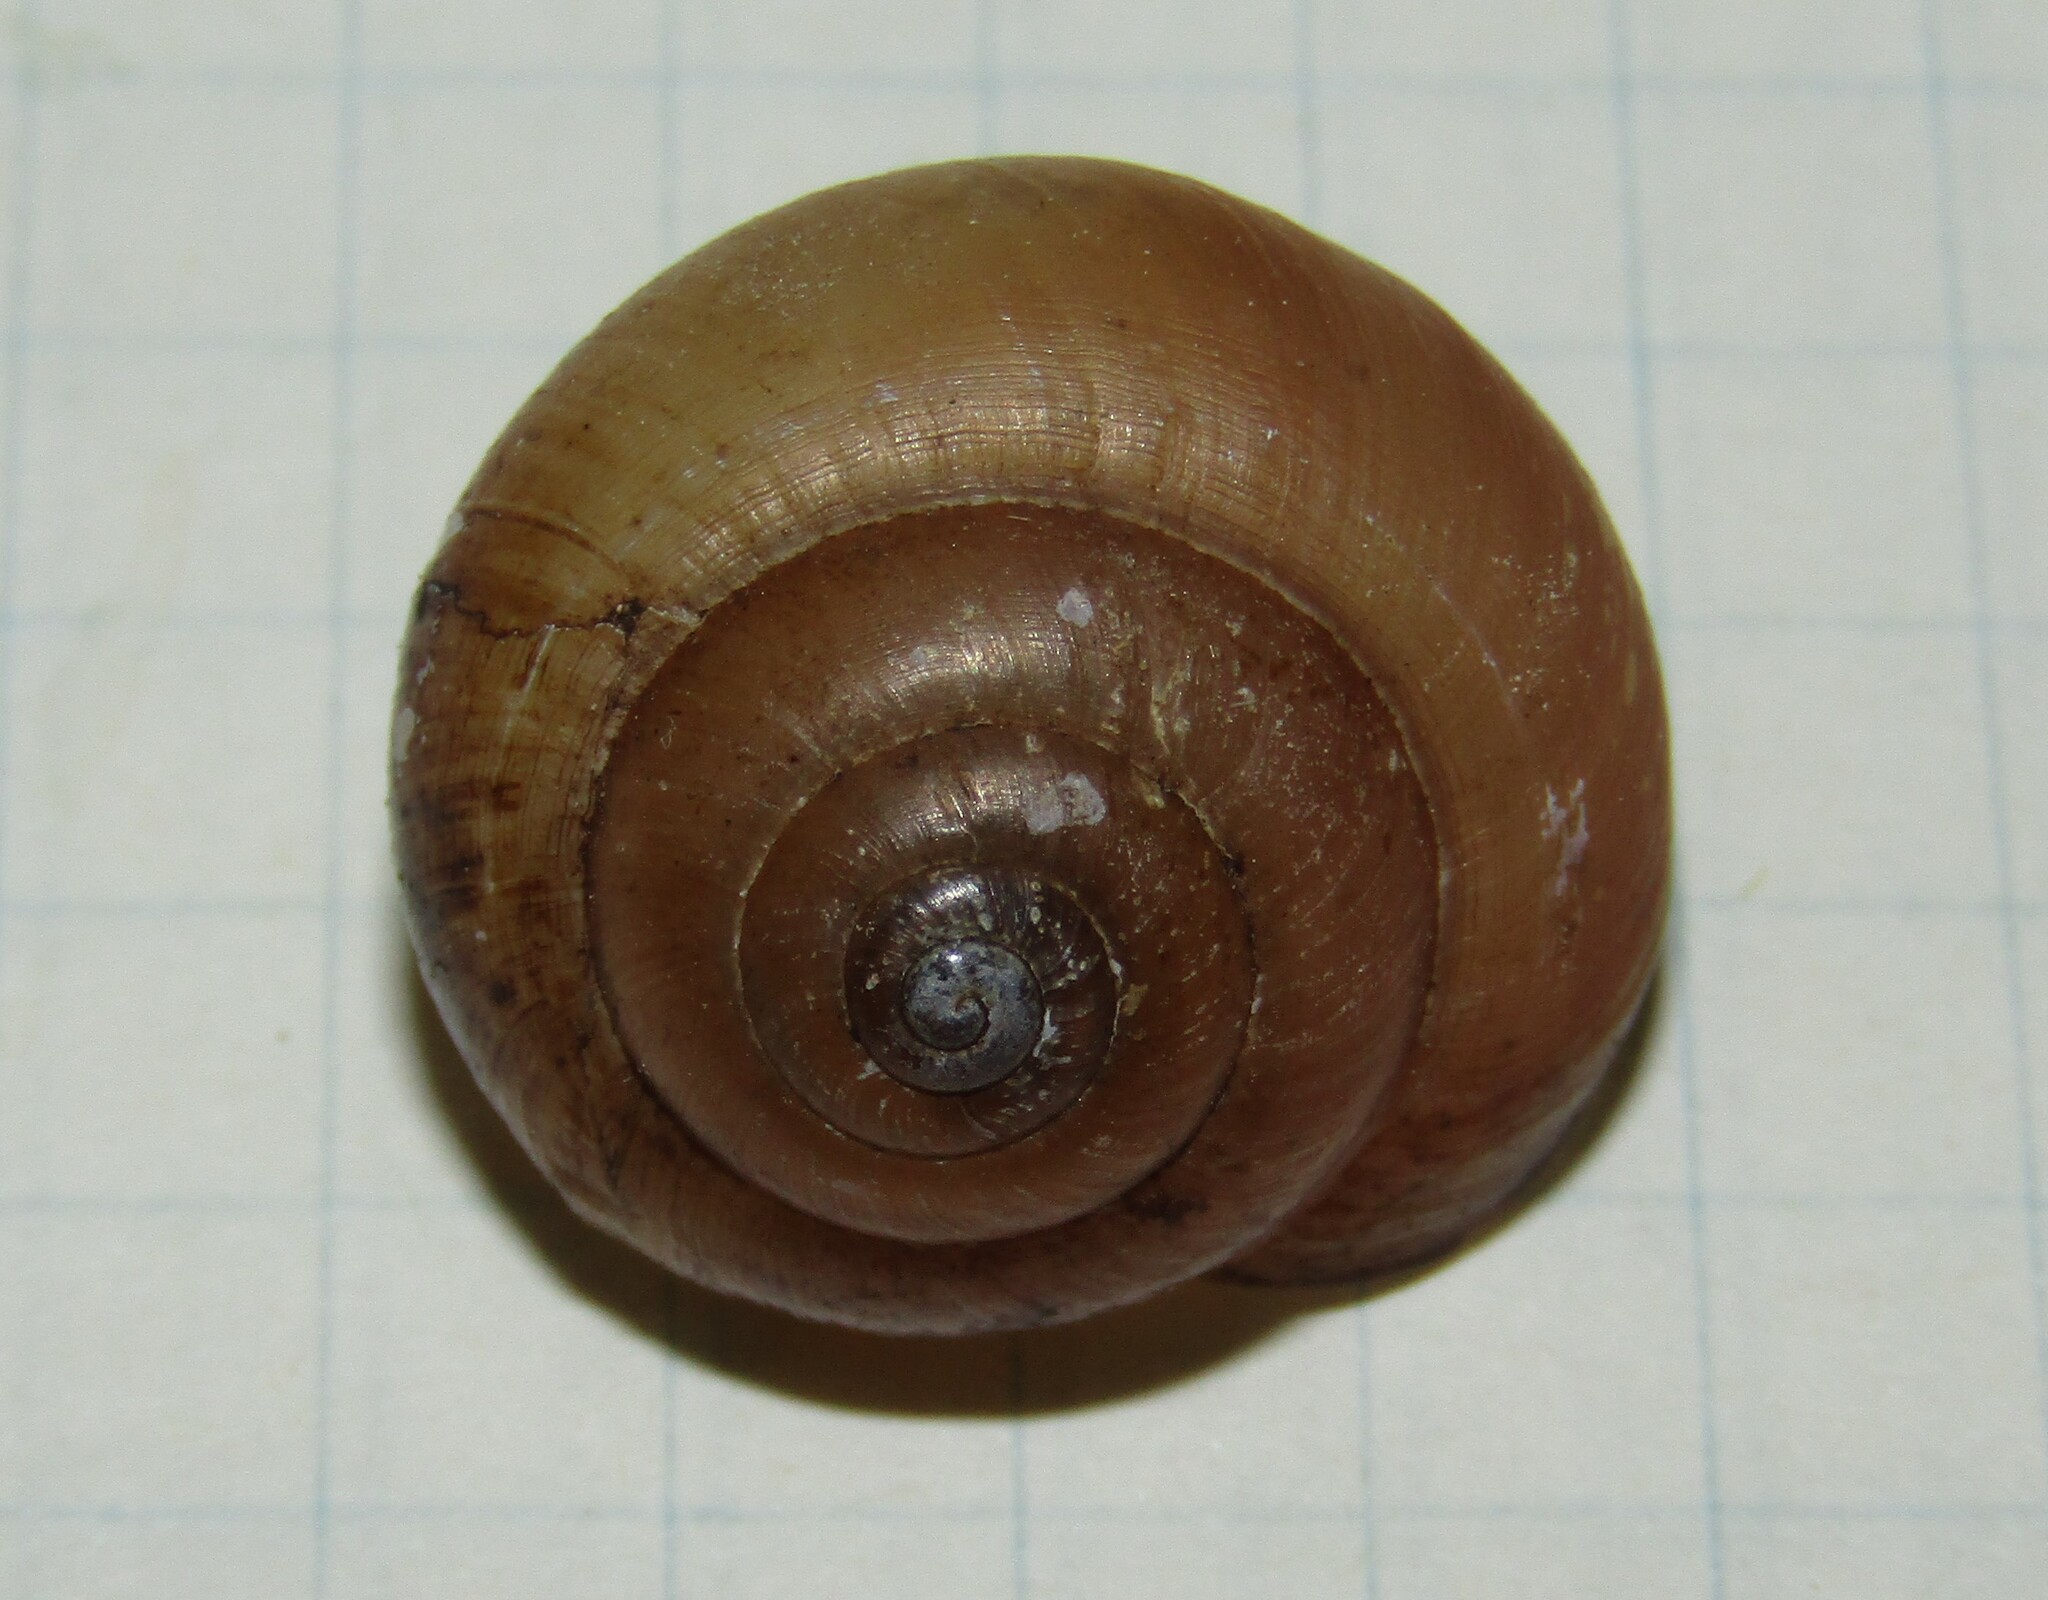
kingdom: Animalia
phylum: Mollusca
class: Gastropoda
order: Stylommatophora
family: Camaenidae
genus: Fruticicola
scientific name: Fruticicola fruticum
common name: Bush snail
